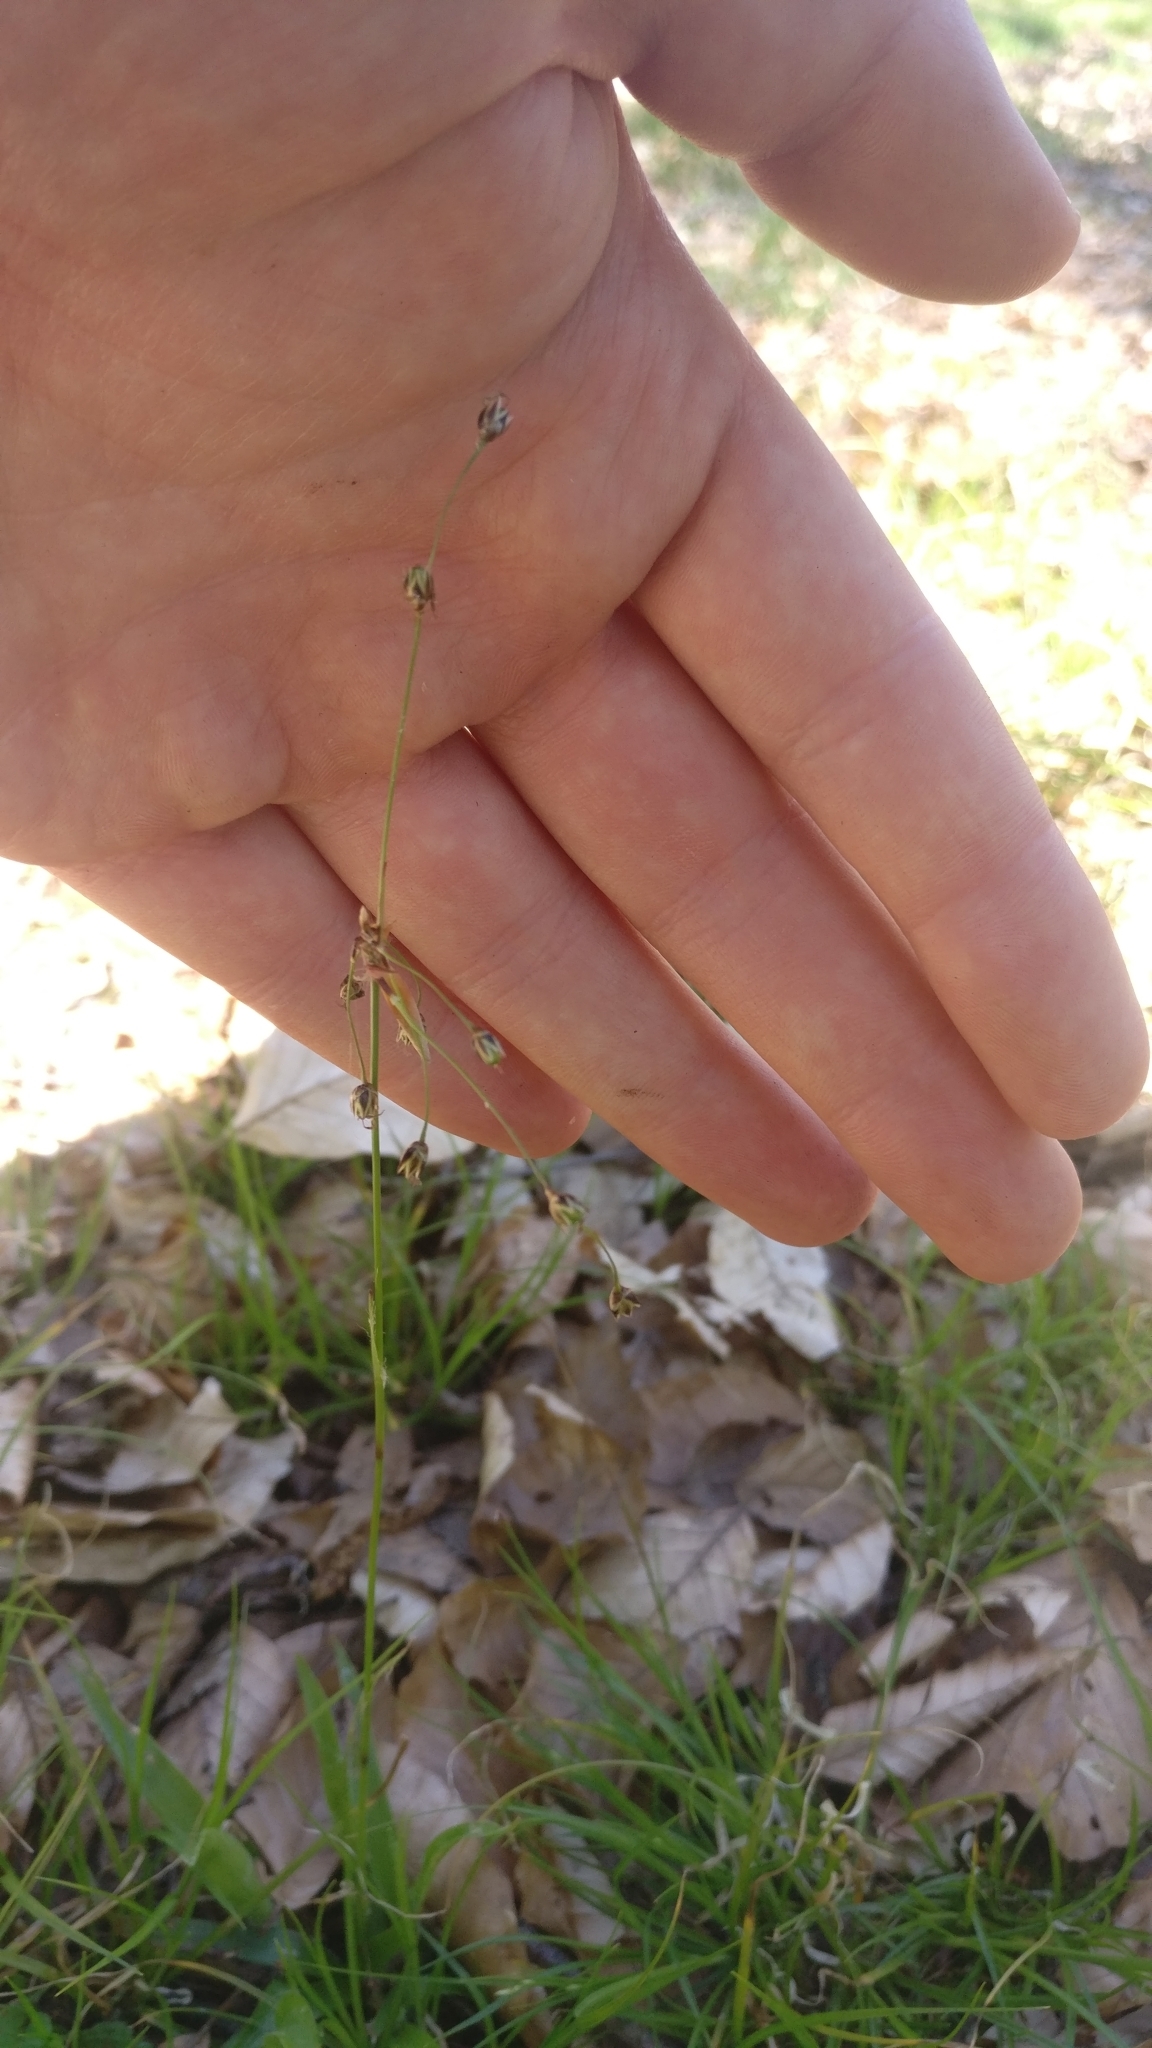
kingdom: Plantae
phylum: Tracheophyta
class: Liliopsida
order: Poales
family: Juncaceae
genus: Luzula
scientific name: Luzula pilosa
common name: Hairy wood-rush
